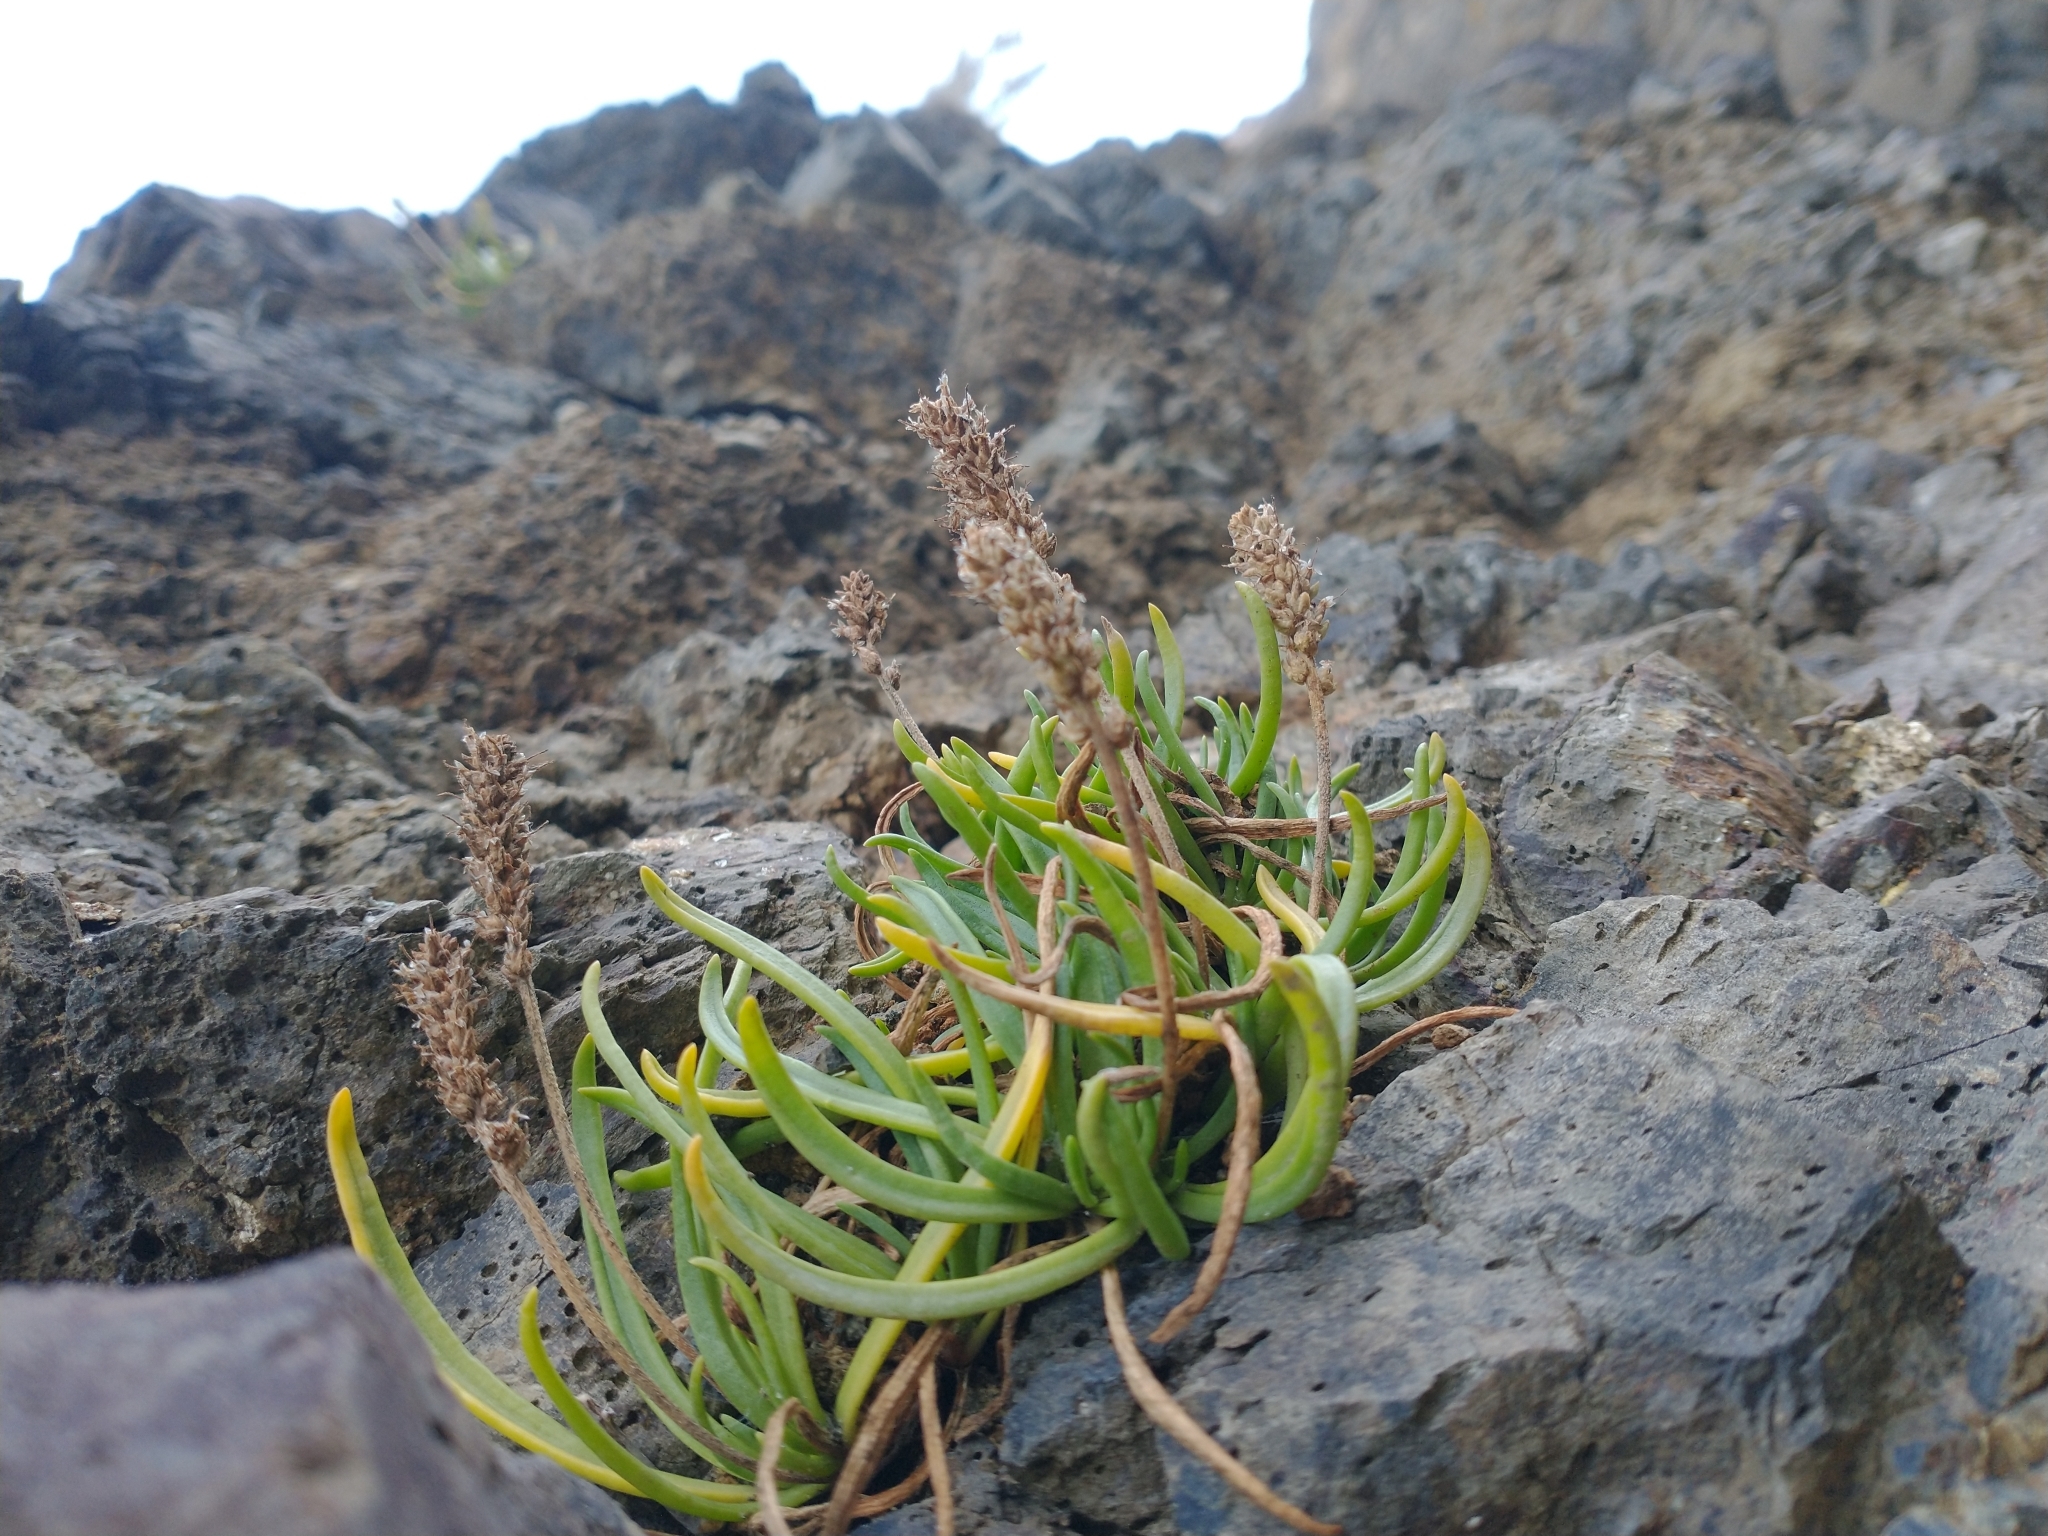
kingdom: Plantae
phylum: Tracheophyta
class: Magnoliopsida
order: Lamiales
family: Plantaginaceae
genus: Plantago
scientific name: Plantago maritima
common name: Sea plantain
